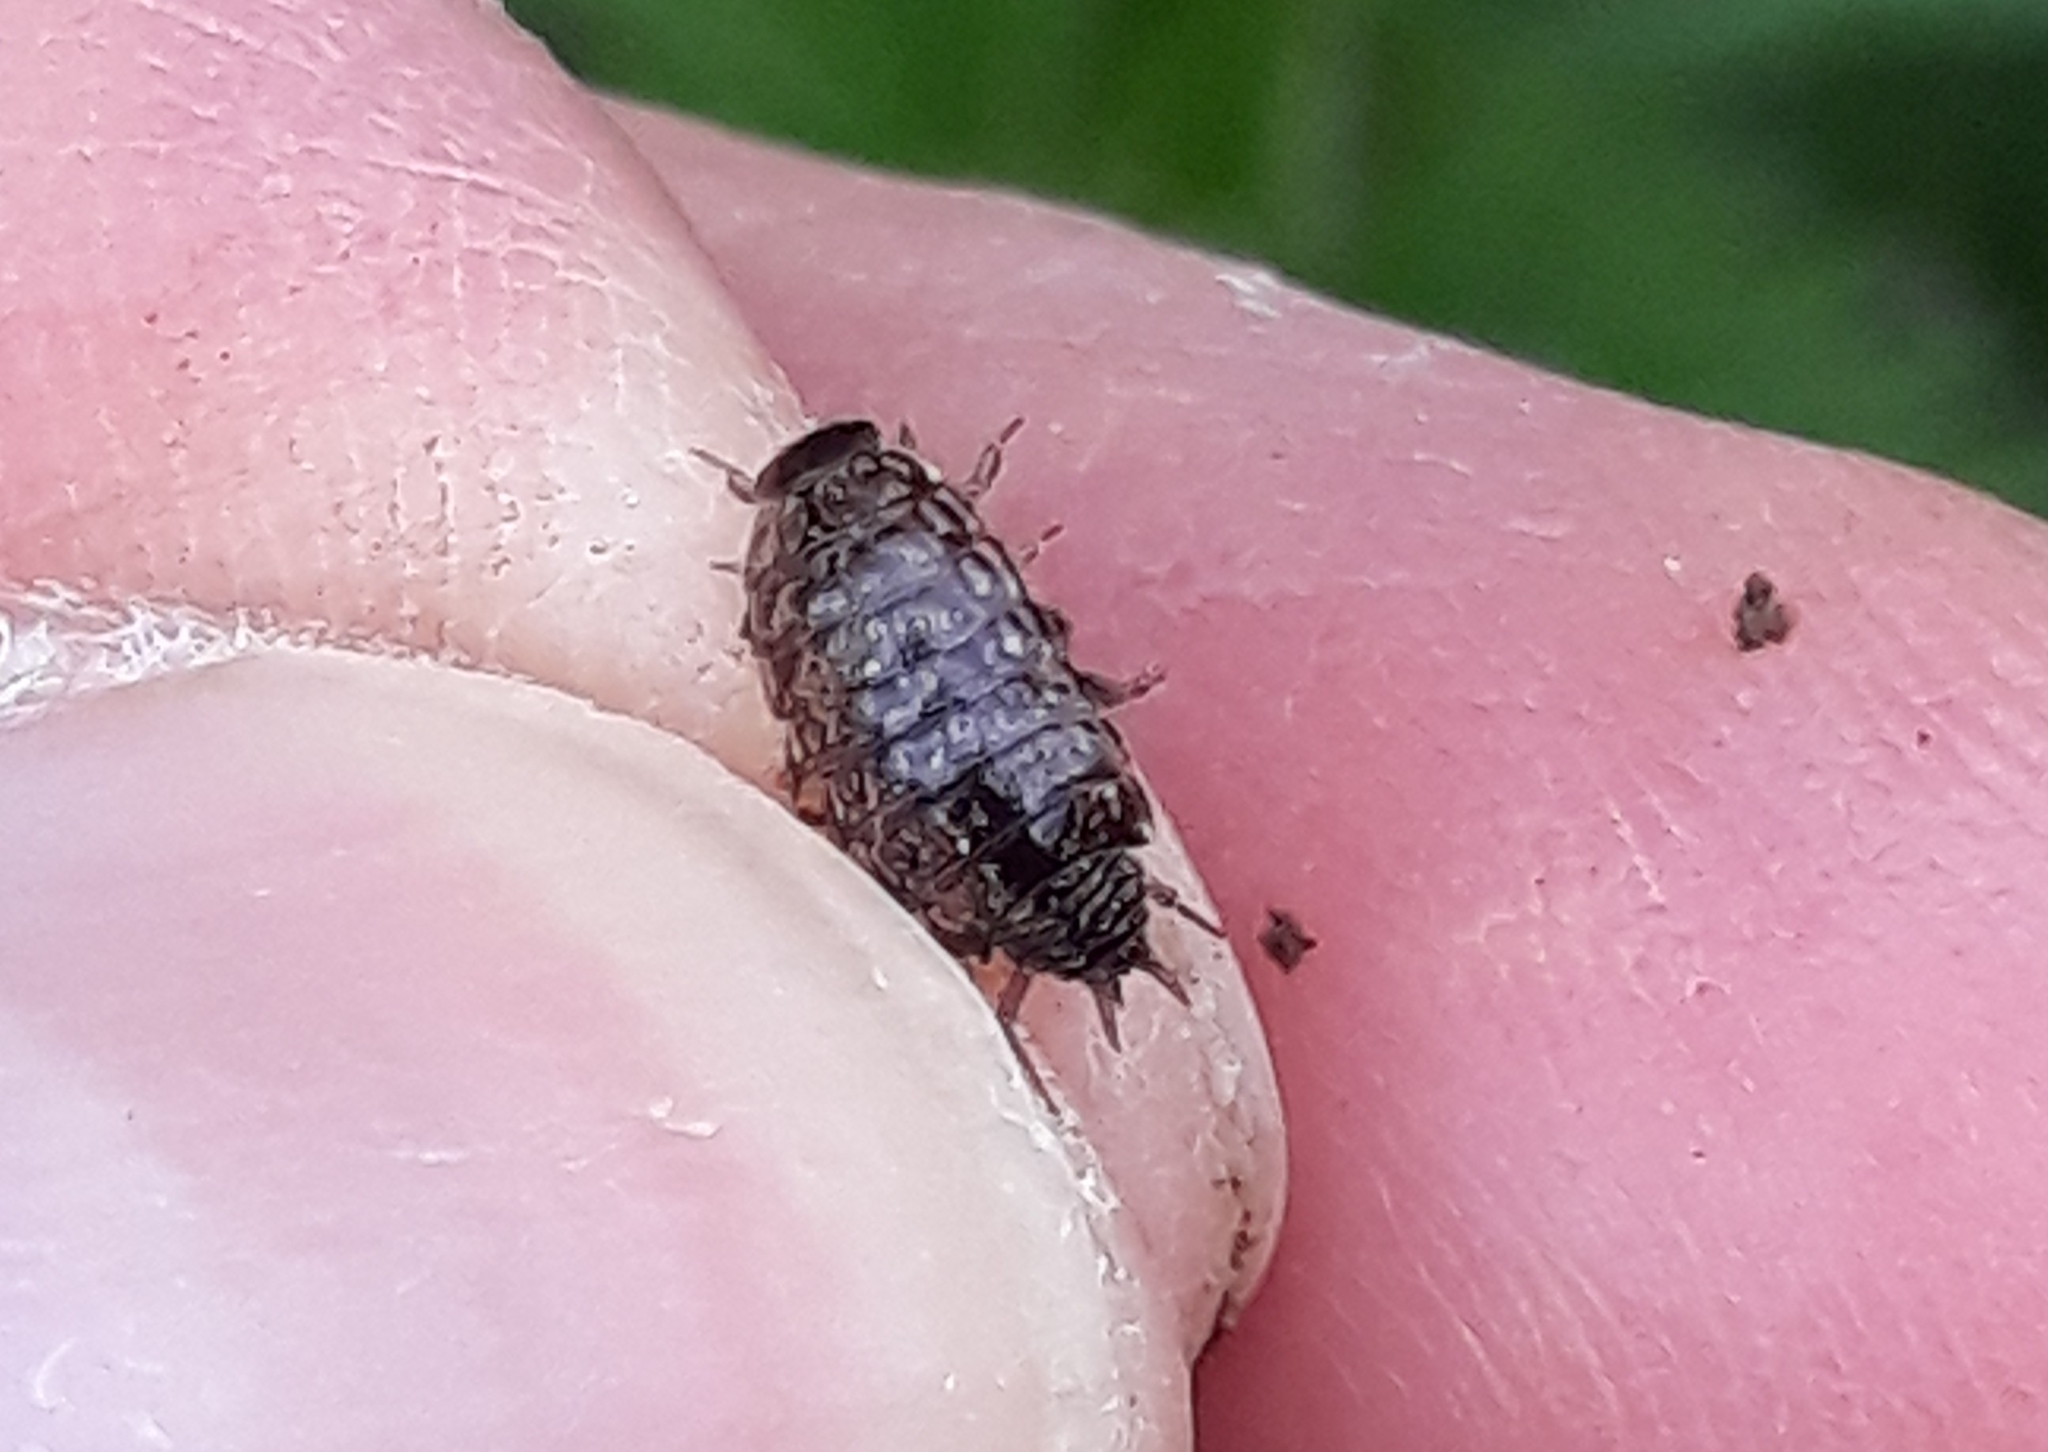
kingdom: Animalia
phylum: Arthropoda
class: Malacostraca
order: Isopoda
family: Philosciidae
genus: Philoscia
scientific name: Philoscia muscorum
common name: Common striped woodlouse
